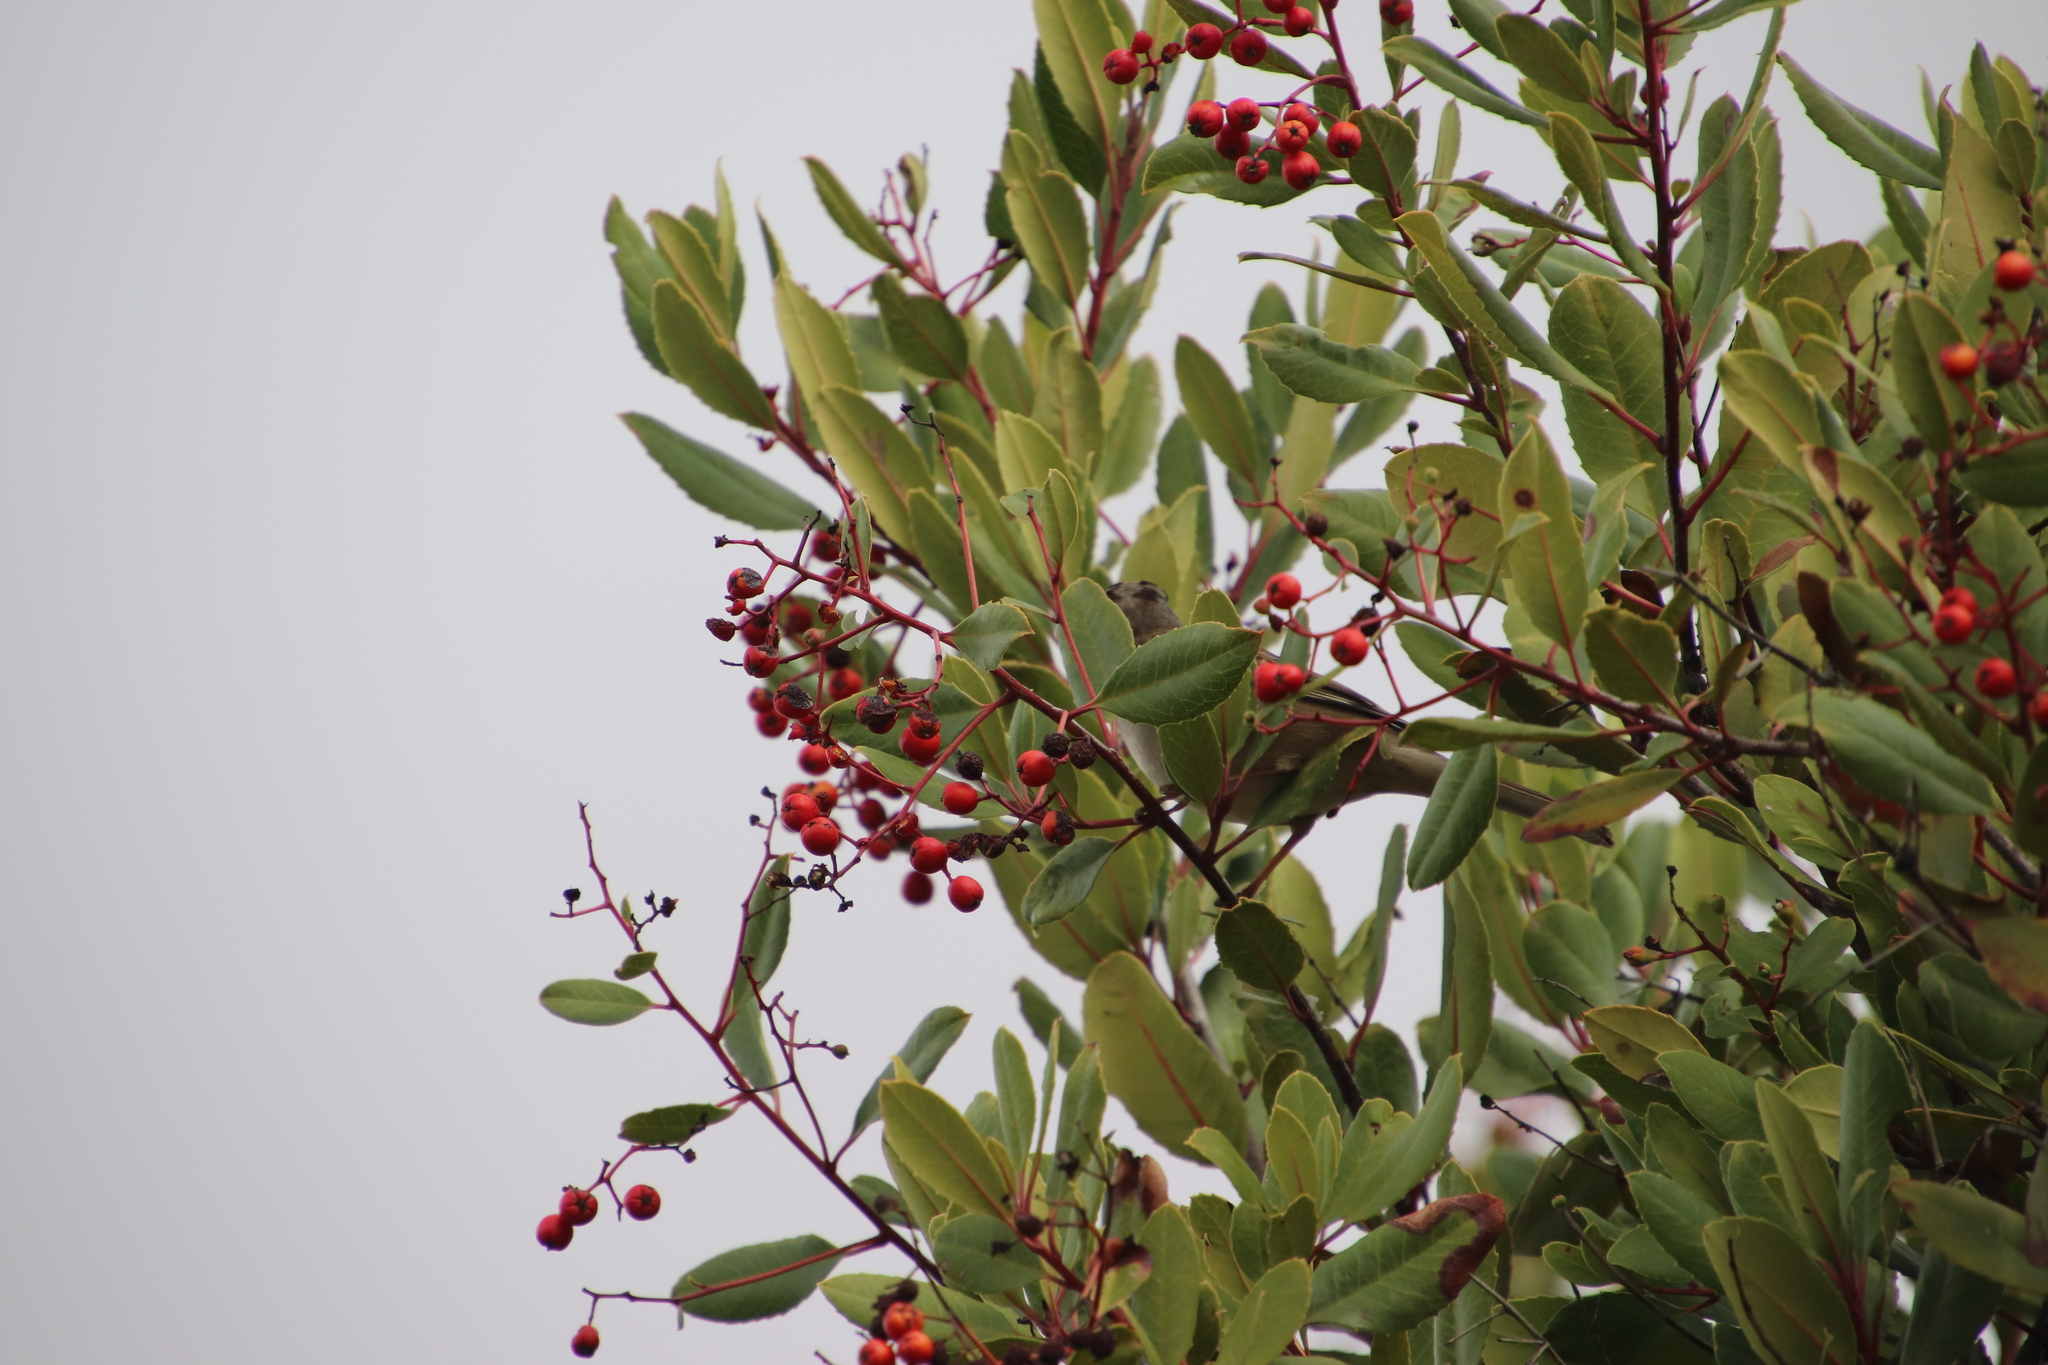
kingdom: Animalia
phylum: Chordata
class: Aves
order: Passeriformes
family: Passerellidae
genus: Zonotrichia
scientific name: Zonotrichia leucophrys
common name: White-crowned sparrow
